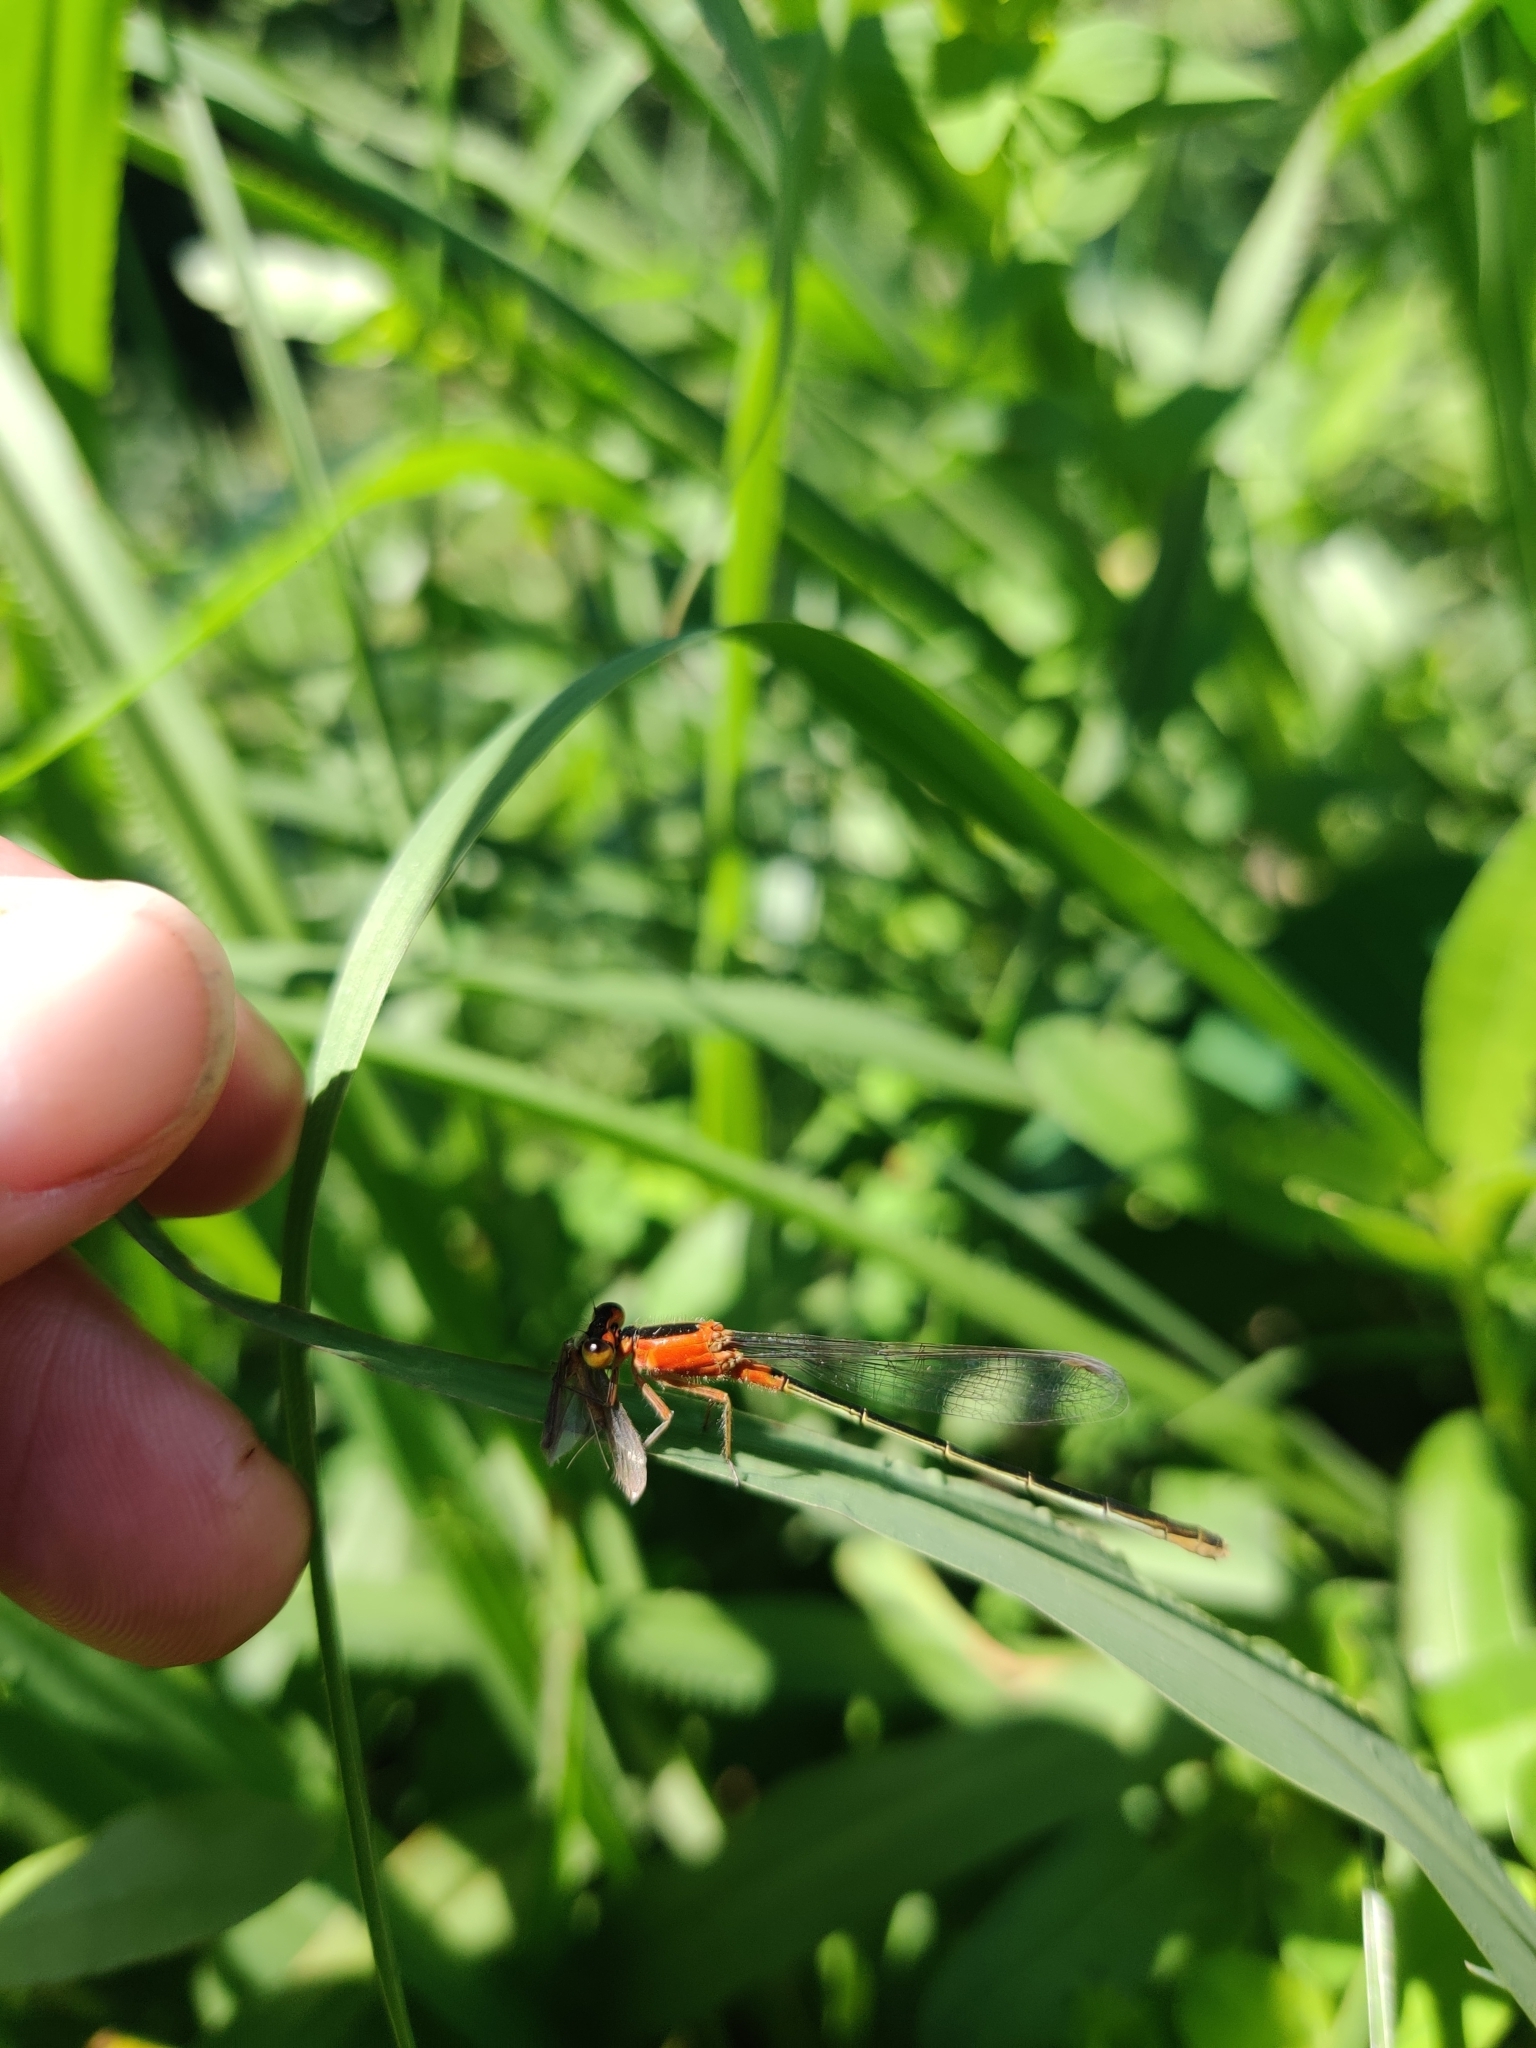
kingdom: Animalia
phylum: Arthropoda
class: Insecta
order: Odonata
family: Coenagrionidae
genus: Ischnura
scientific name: Ischnura ramburii
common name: Rambur's forktail
